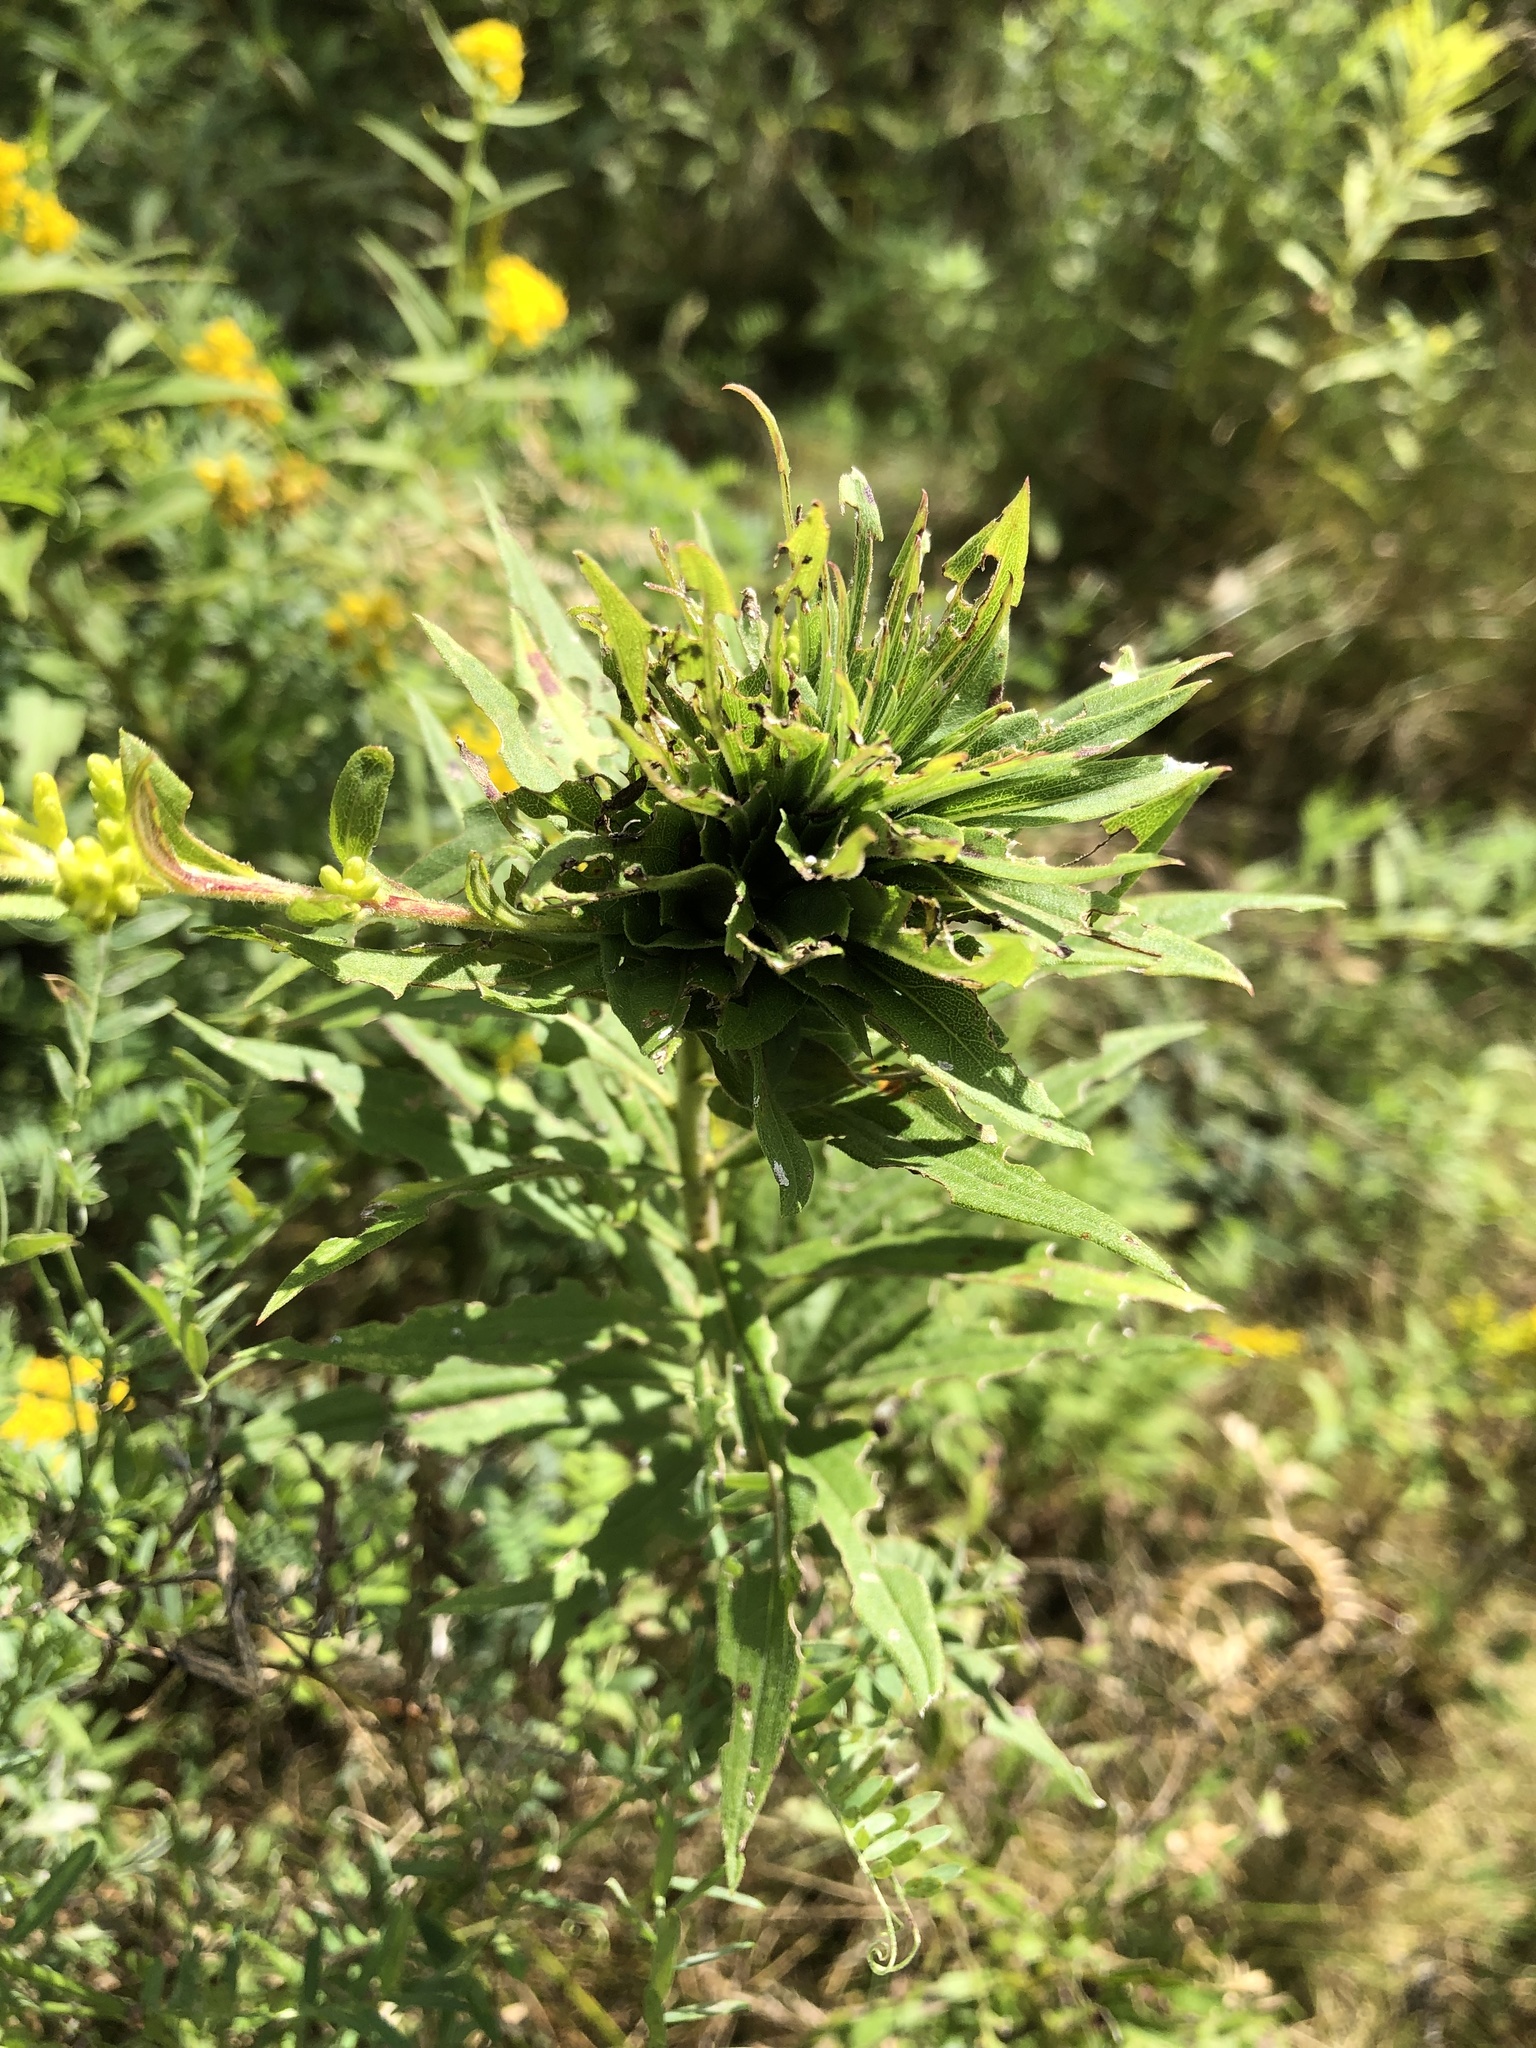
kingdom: Animalia
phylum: Arthropoda
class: Insecta
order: Diptera
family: Cecidomyiidae
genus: Rhopalomyia
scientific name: Rhopalomyia solidaginis
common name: Goldenrod bunch gall midge
